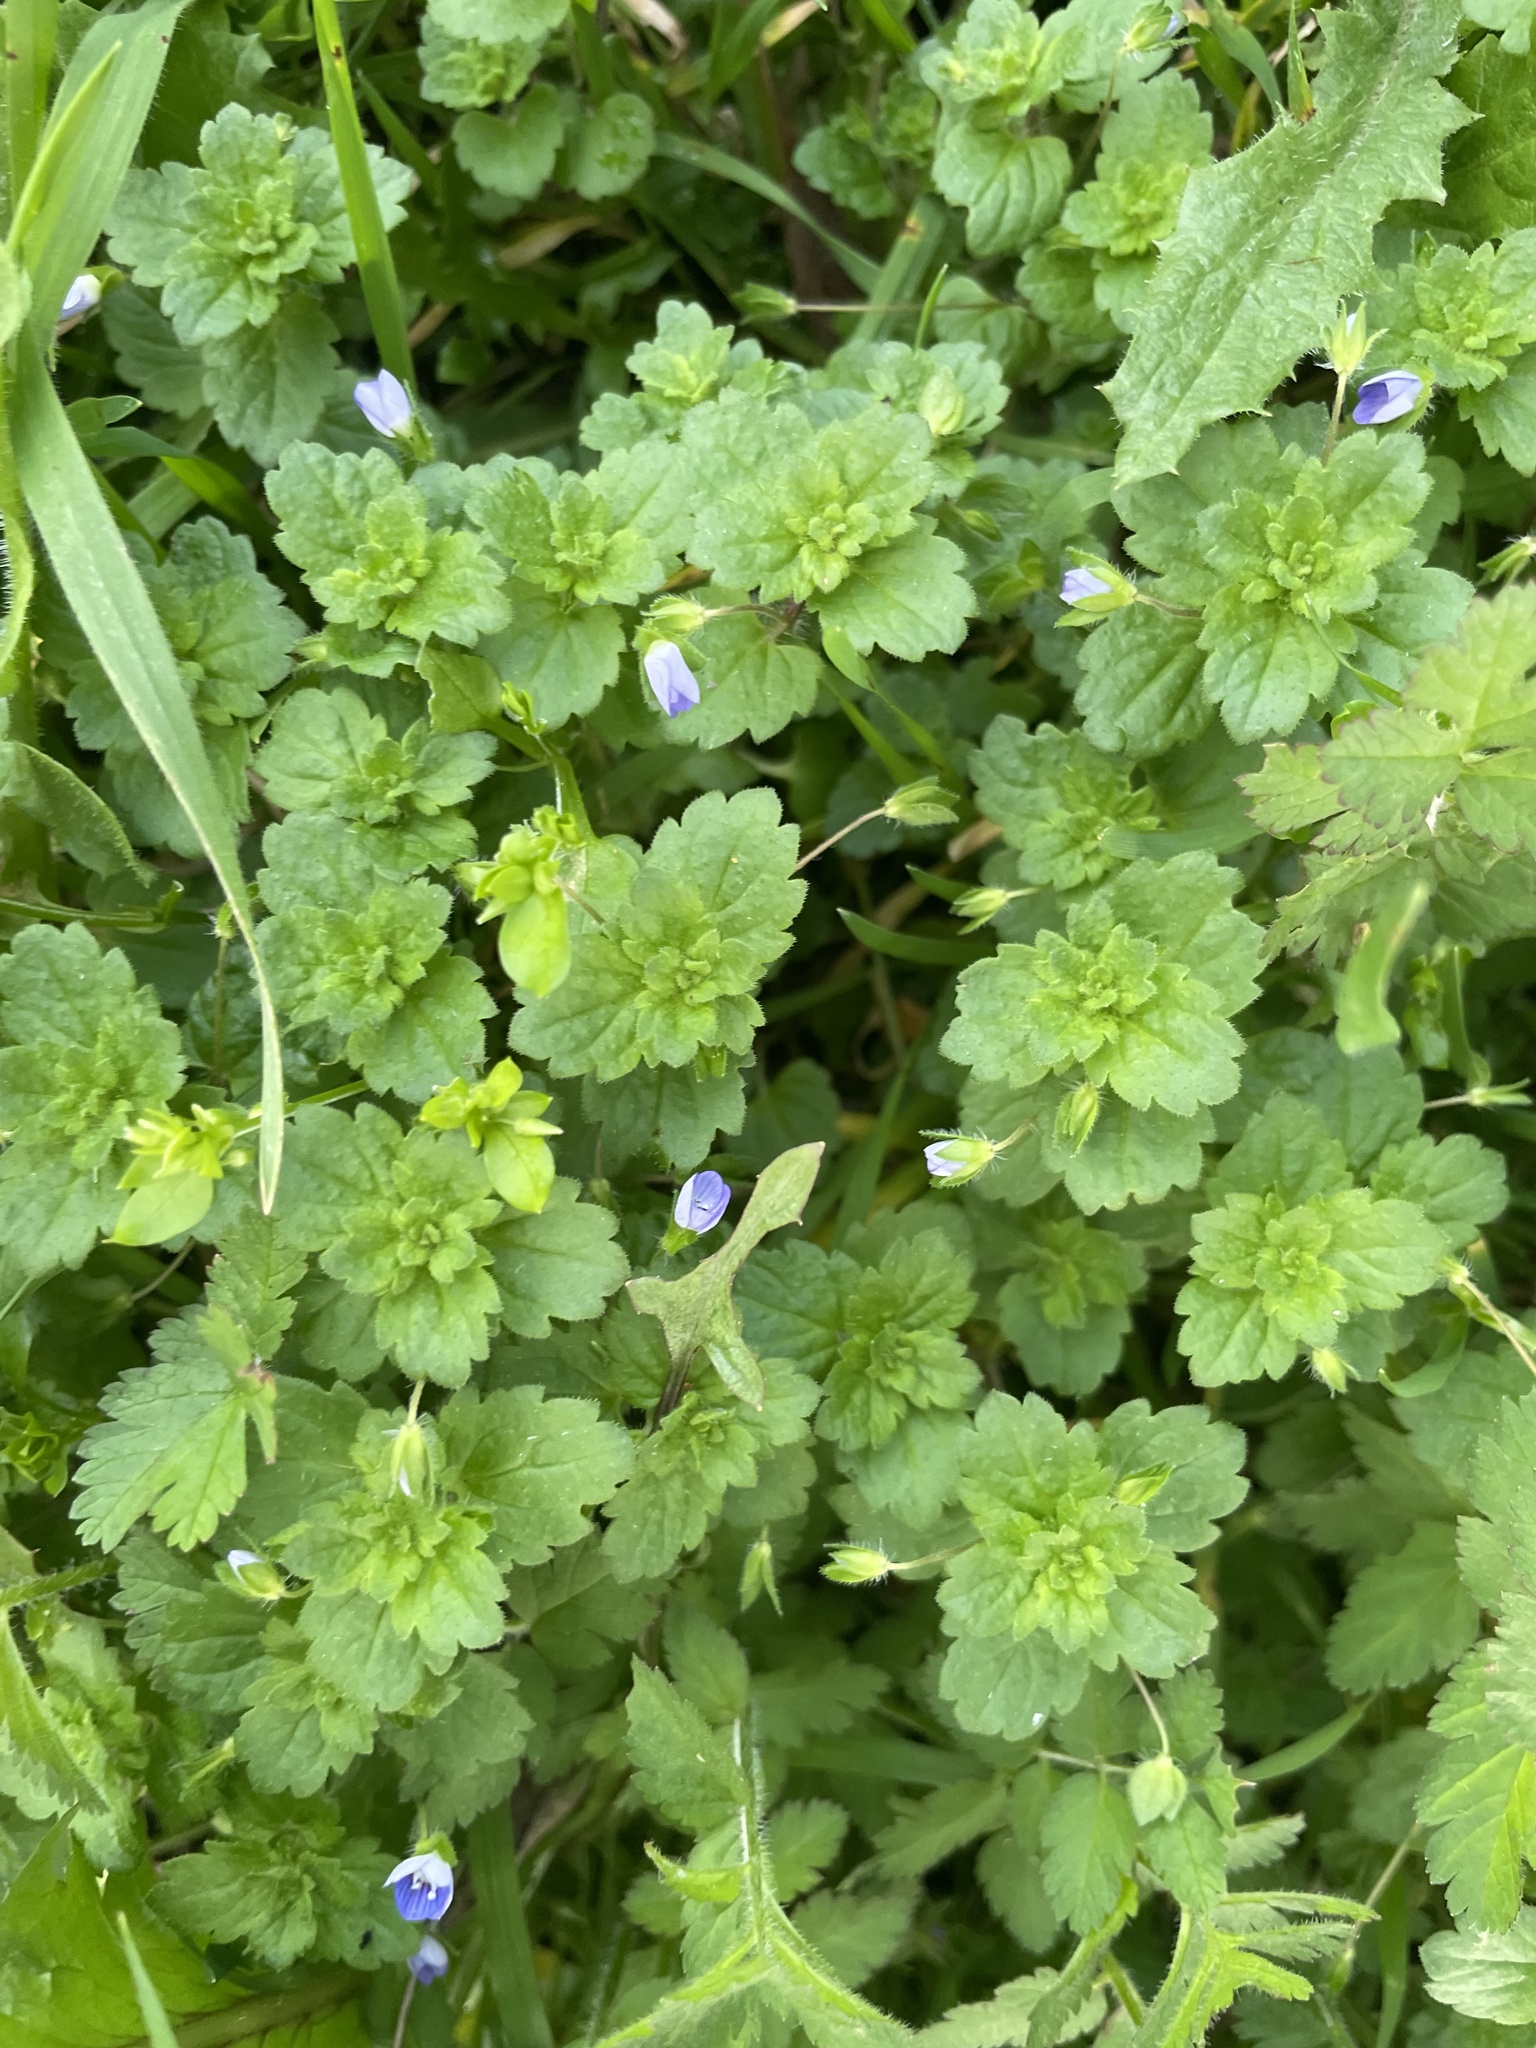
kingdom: Plantae
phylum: Tracheophyta
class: Magnoliopsida
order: Lamiales
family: Plantaginaceae
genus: Veronica
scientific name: Veronica persica
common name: Common field-speedwell
